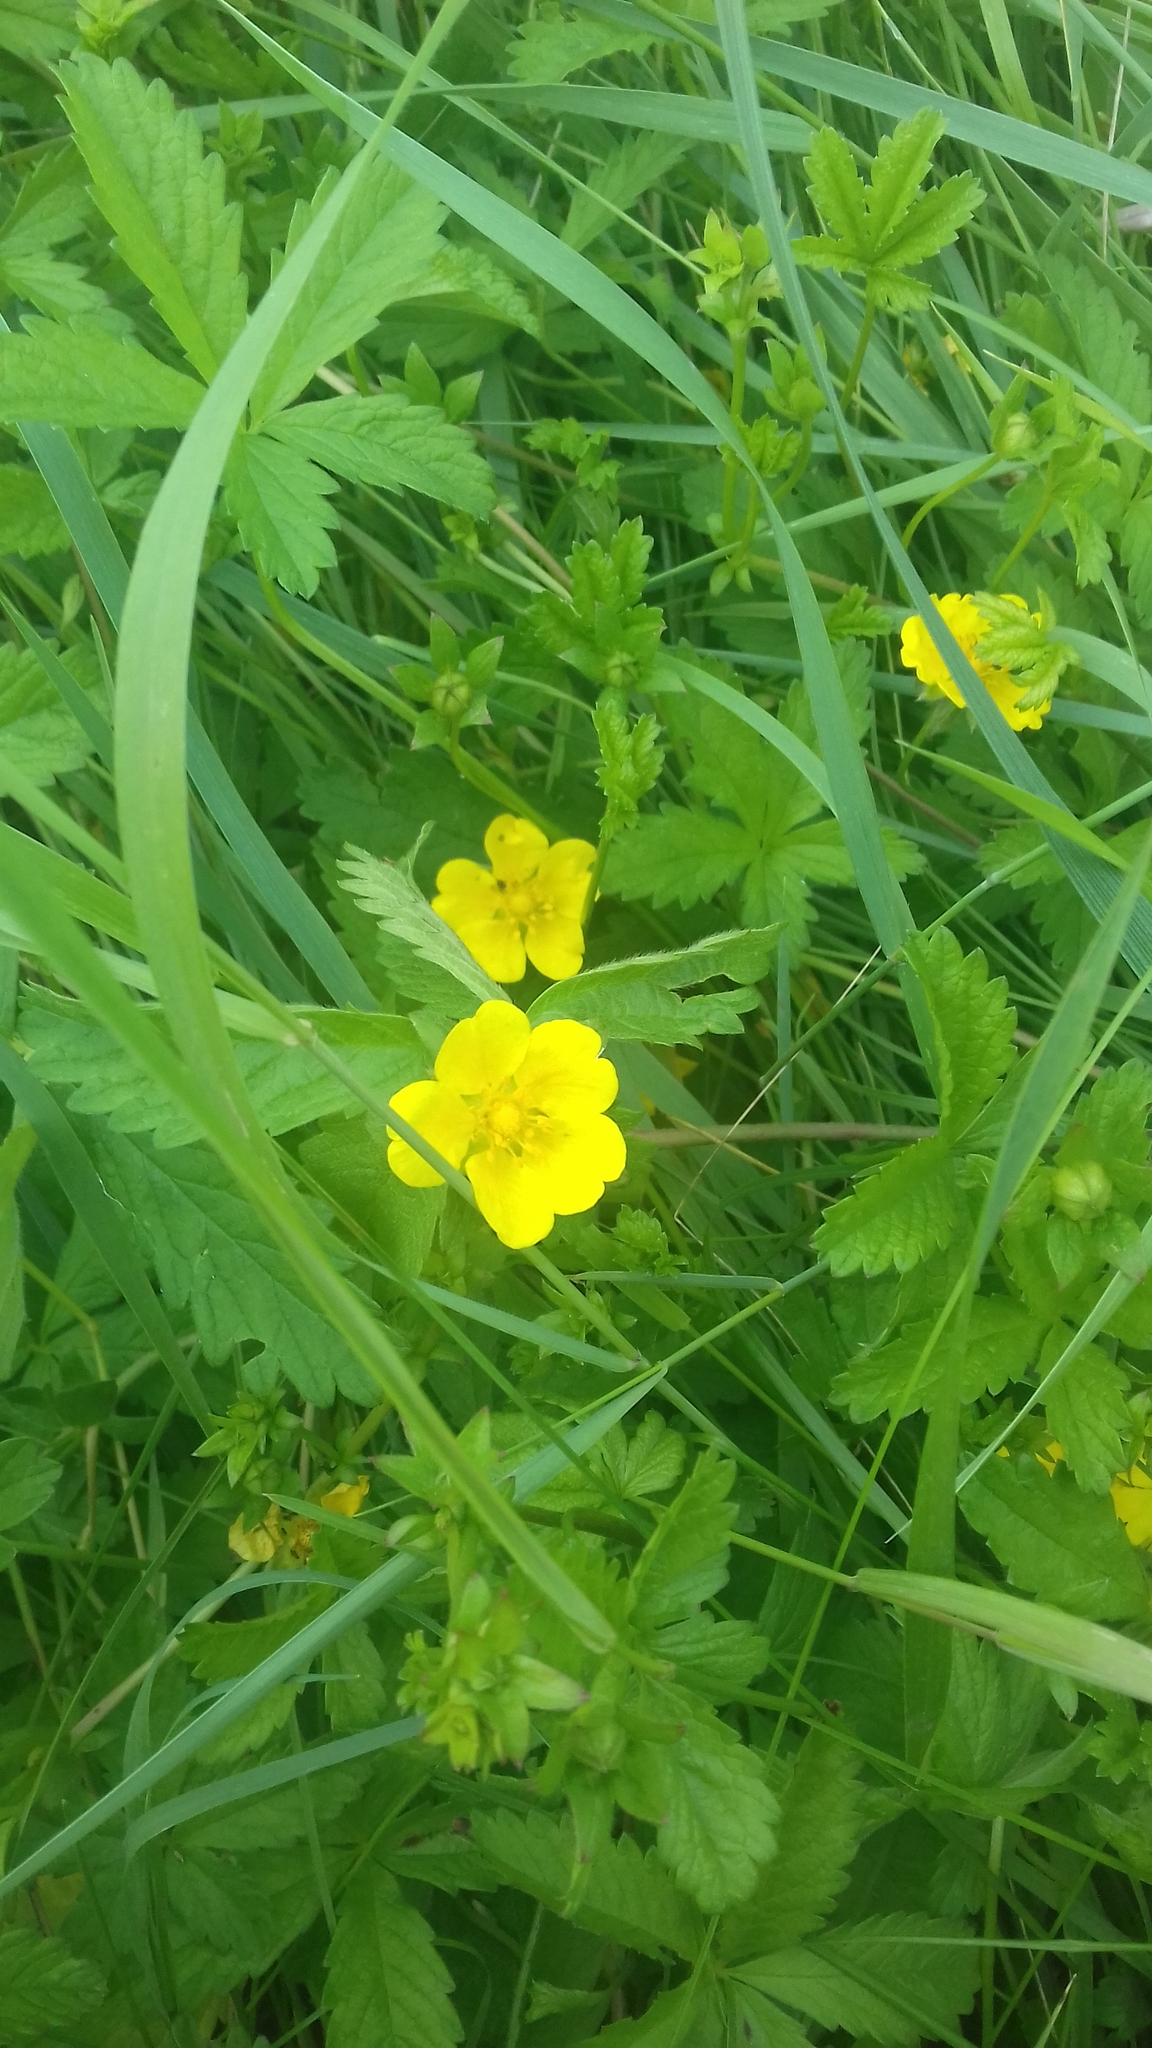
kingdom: Plantae
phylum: Tracheophyta
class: Magnoliopsida
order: Rosales
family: Rosaceae
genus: Potentilla
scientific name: Potentilla reptans
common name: Creeping cinquefoil
